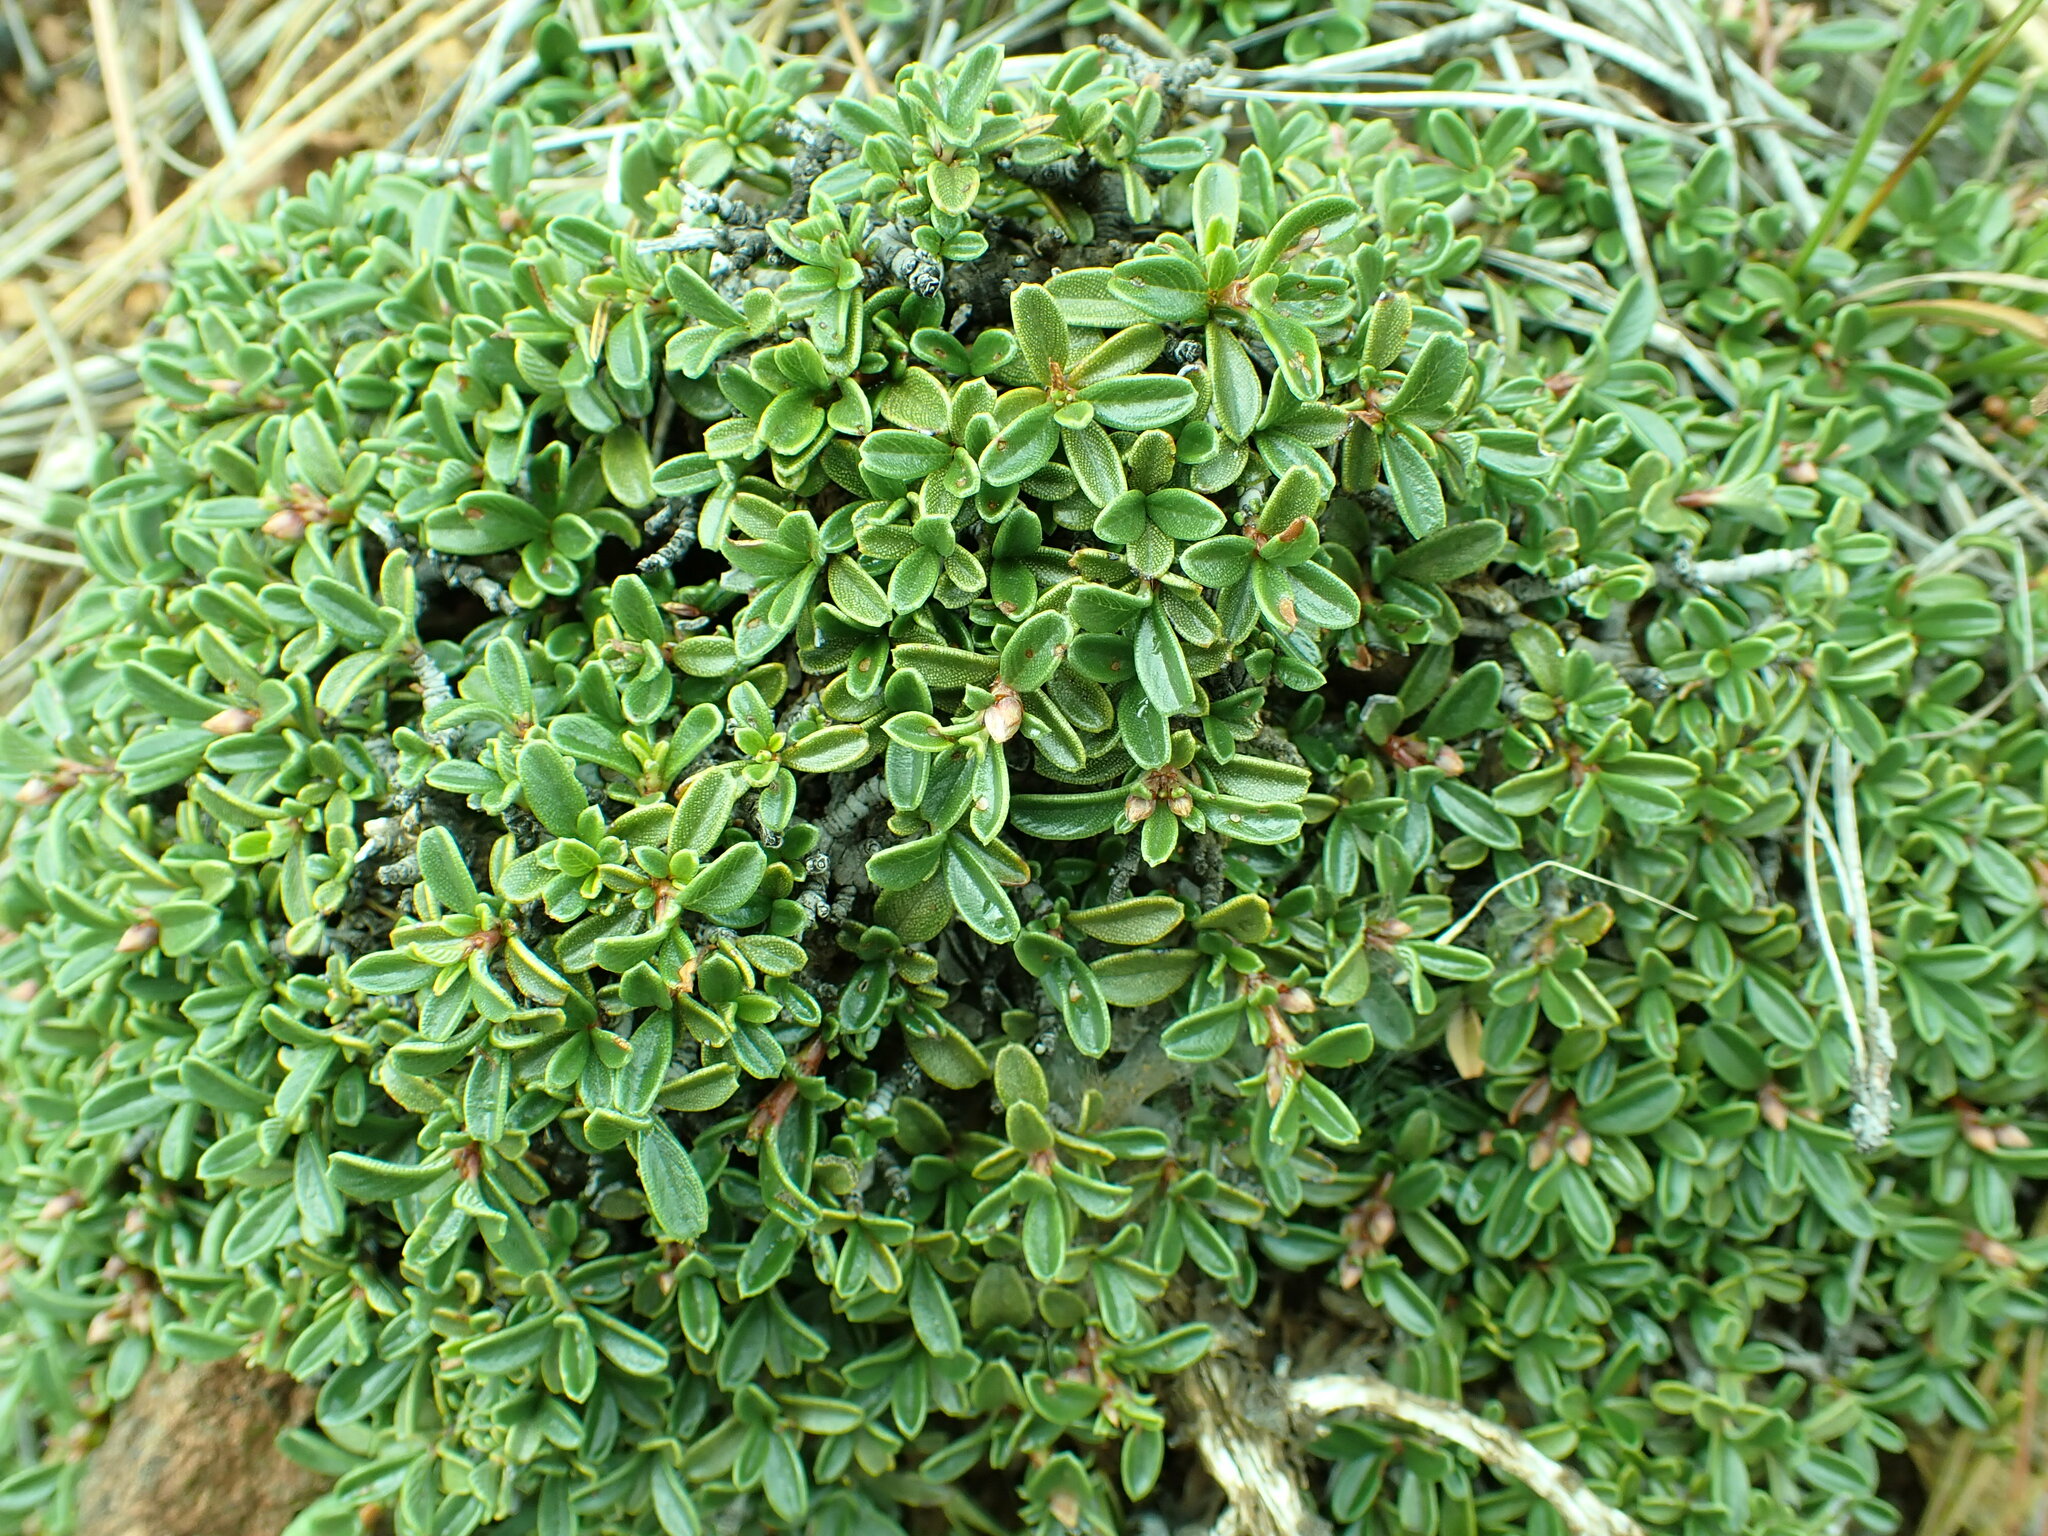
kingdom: Plantae
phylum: Tracheophyta
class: Magnoliopsida
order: Rosales
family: Rhamnaceae
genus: Ceanothus
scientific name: Ceanothus pumilus
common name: Siskiyou-mat
